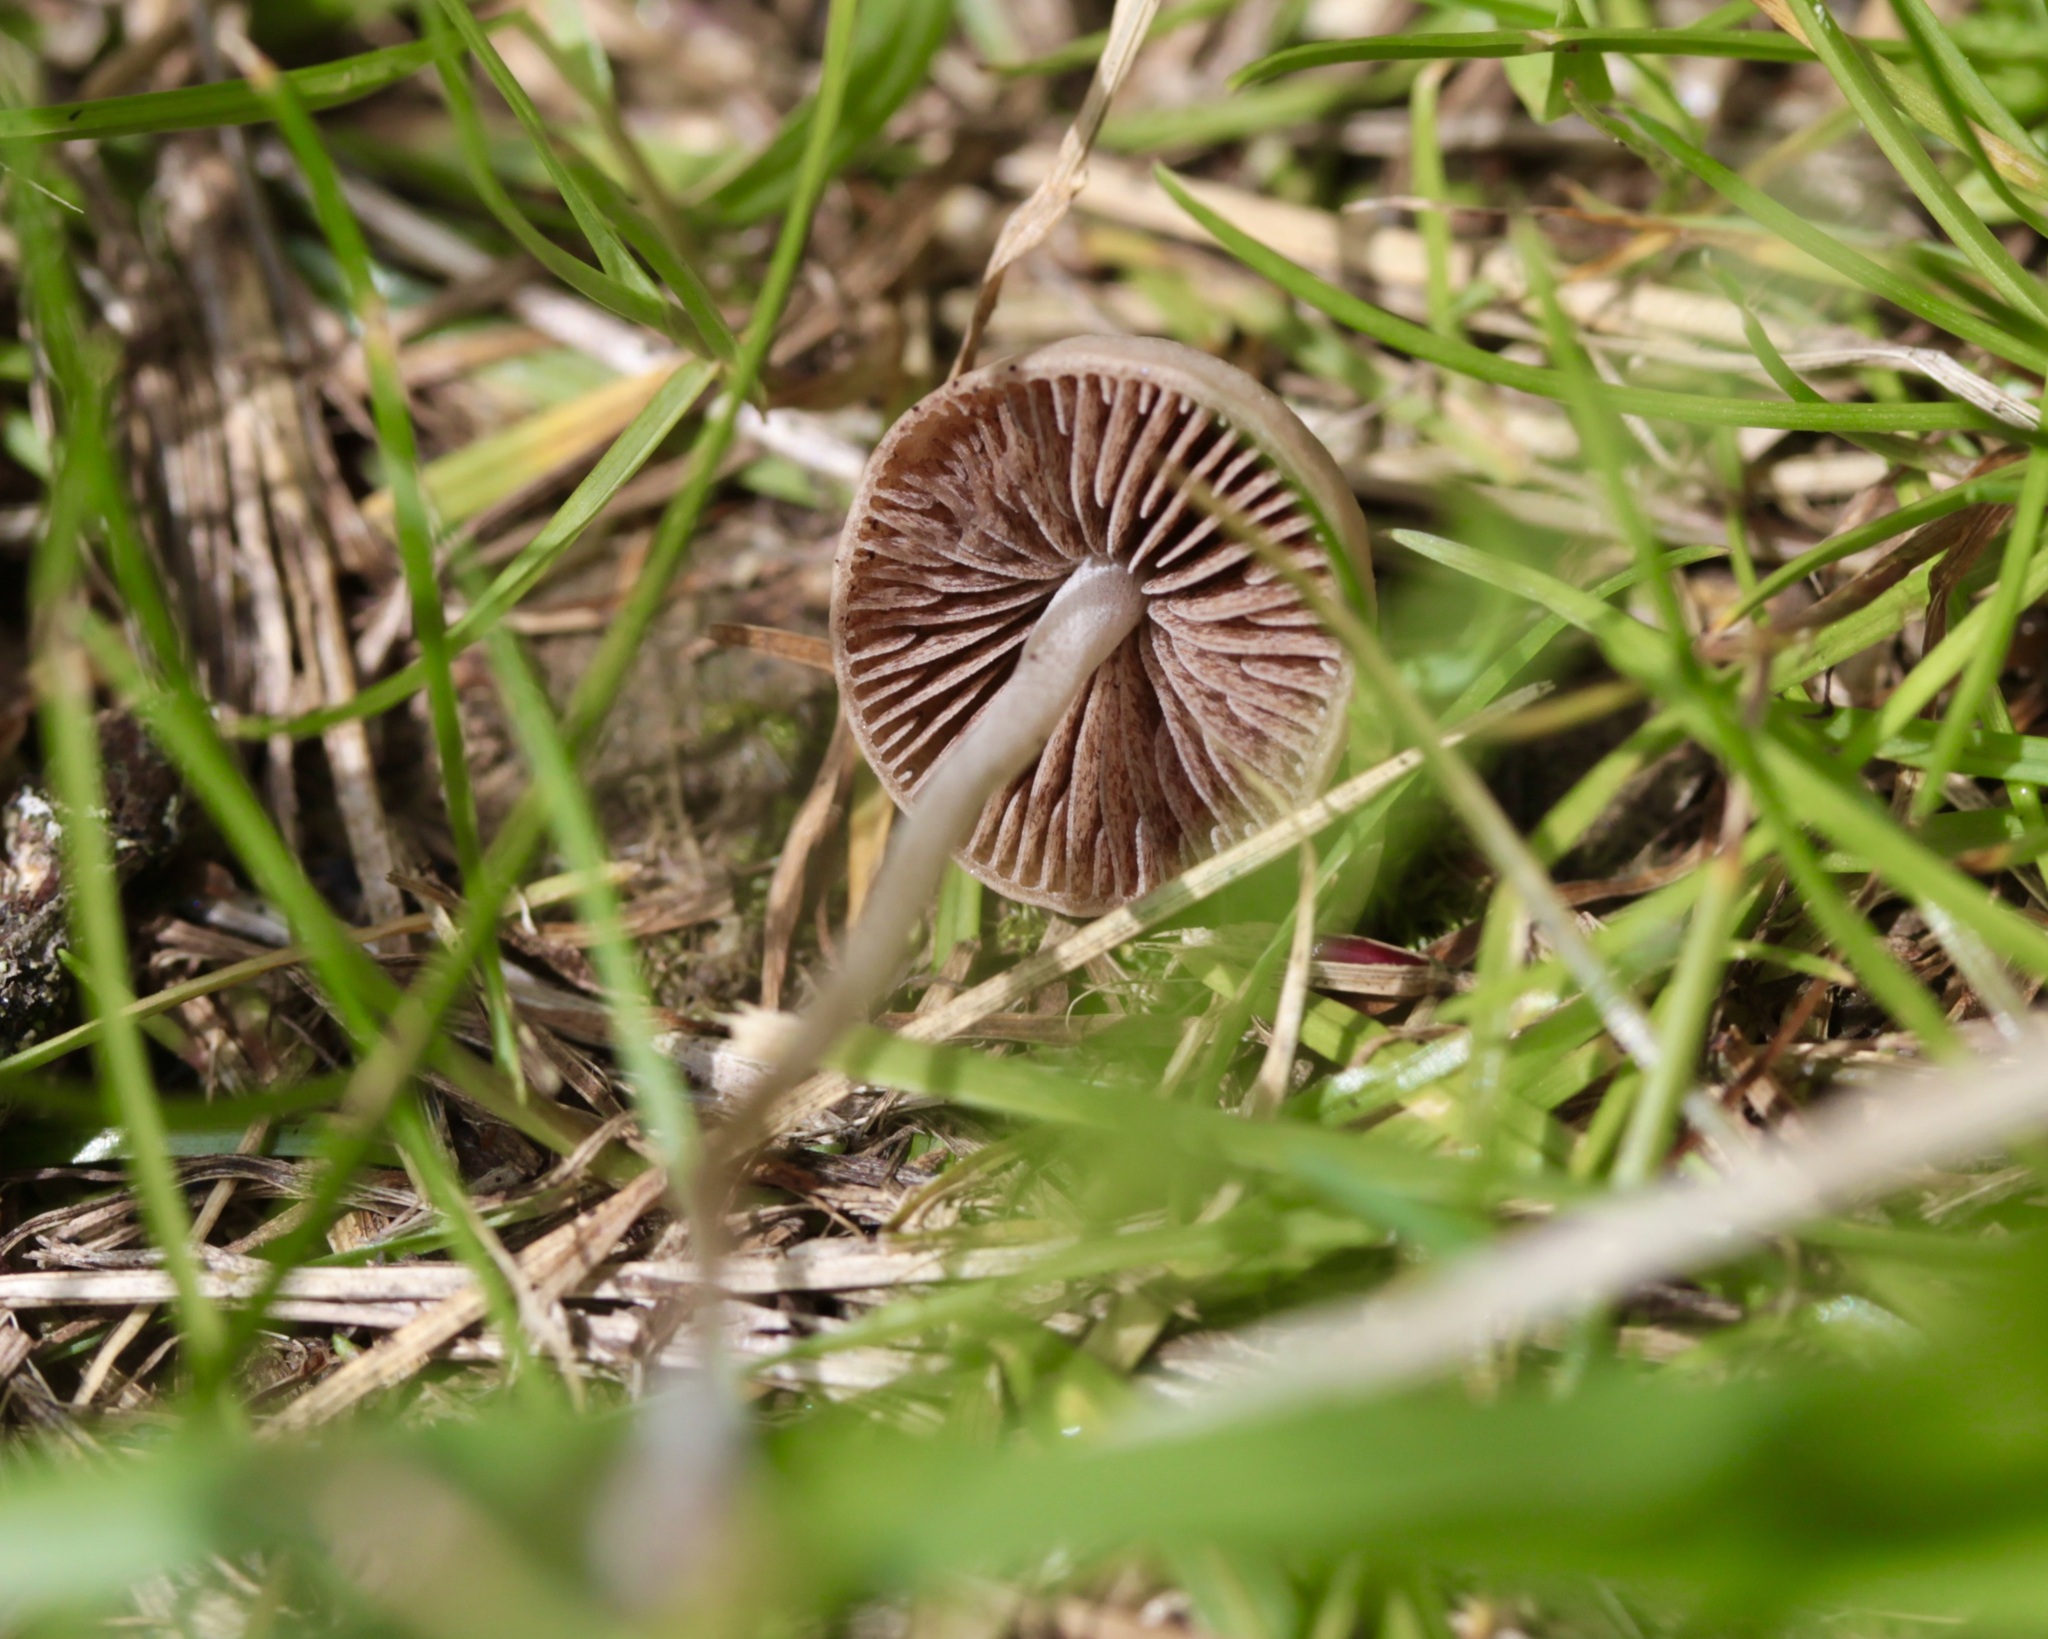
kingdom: Fungi
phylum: Basidiomycota
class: Agaricomycetes
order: Agaricales
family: Bolbitiaceae
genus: Panaeolina
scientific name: Panaeolina foenisecii
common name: Brown hay cap
